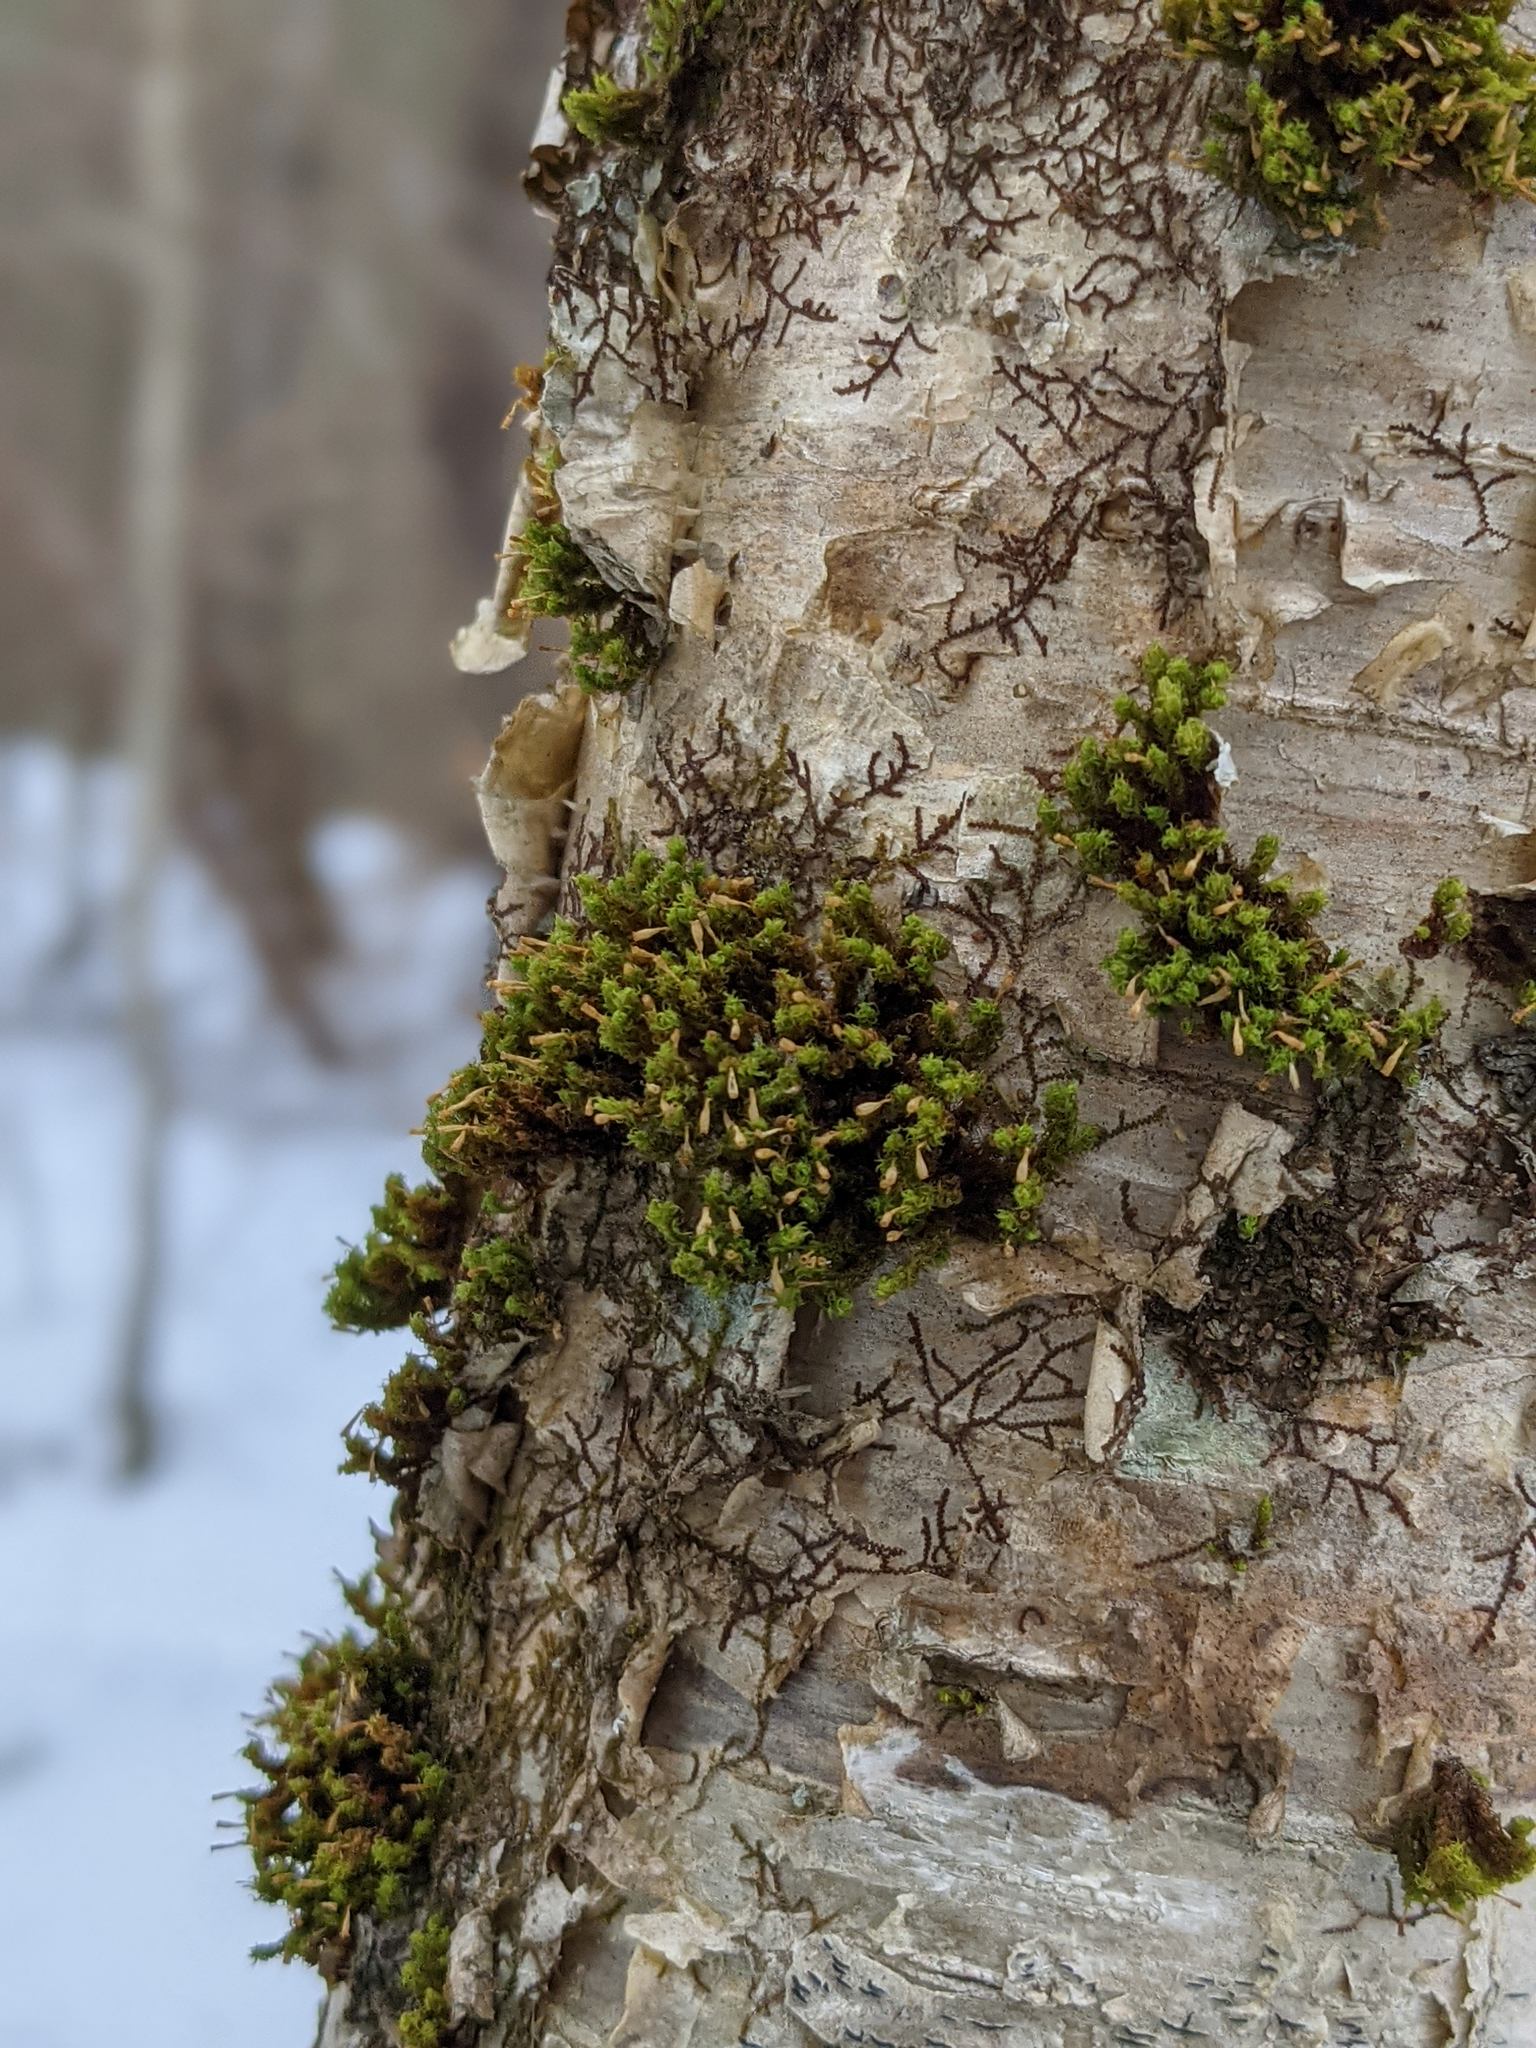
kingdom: Plantae
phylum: Bryophyta
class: Bryopsida
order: Orthotrichales
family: Orthotrichaceae
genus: Ulota
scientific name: Ulota crispa
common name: Crisped pincushion moss
